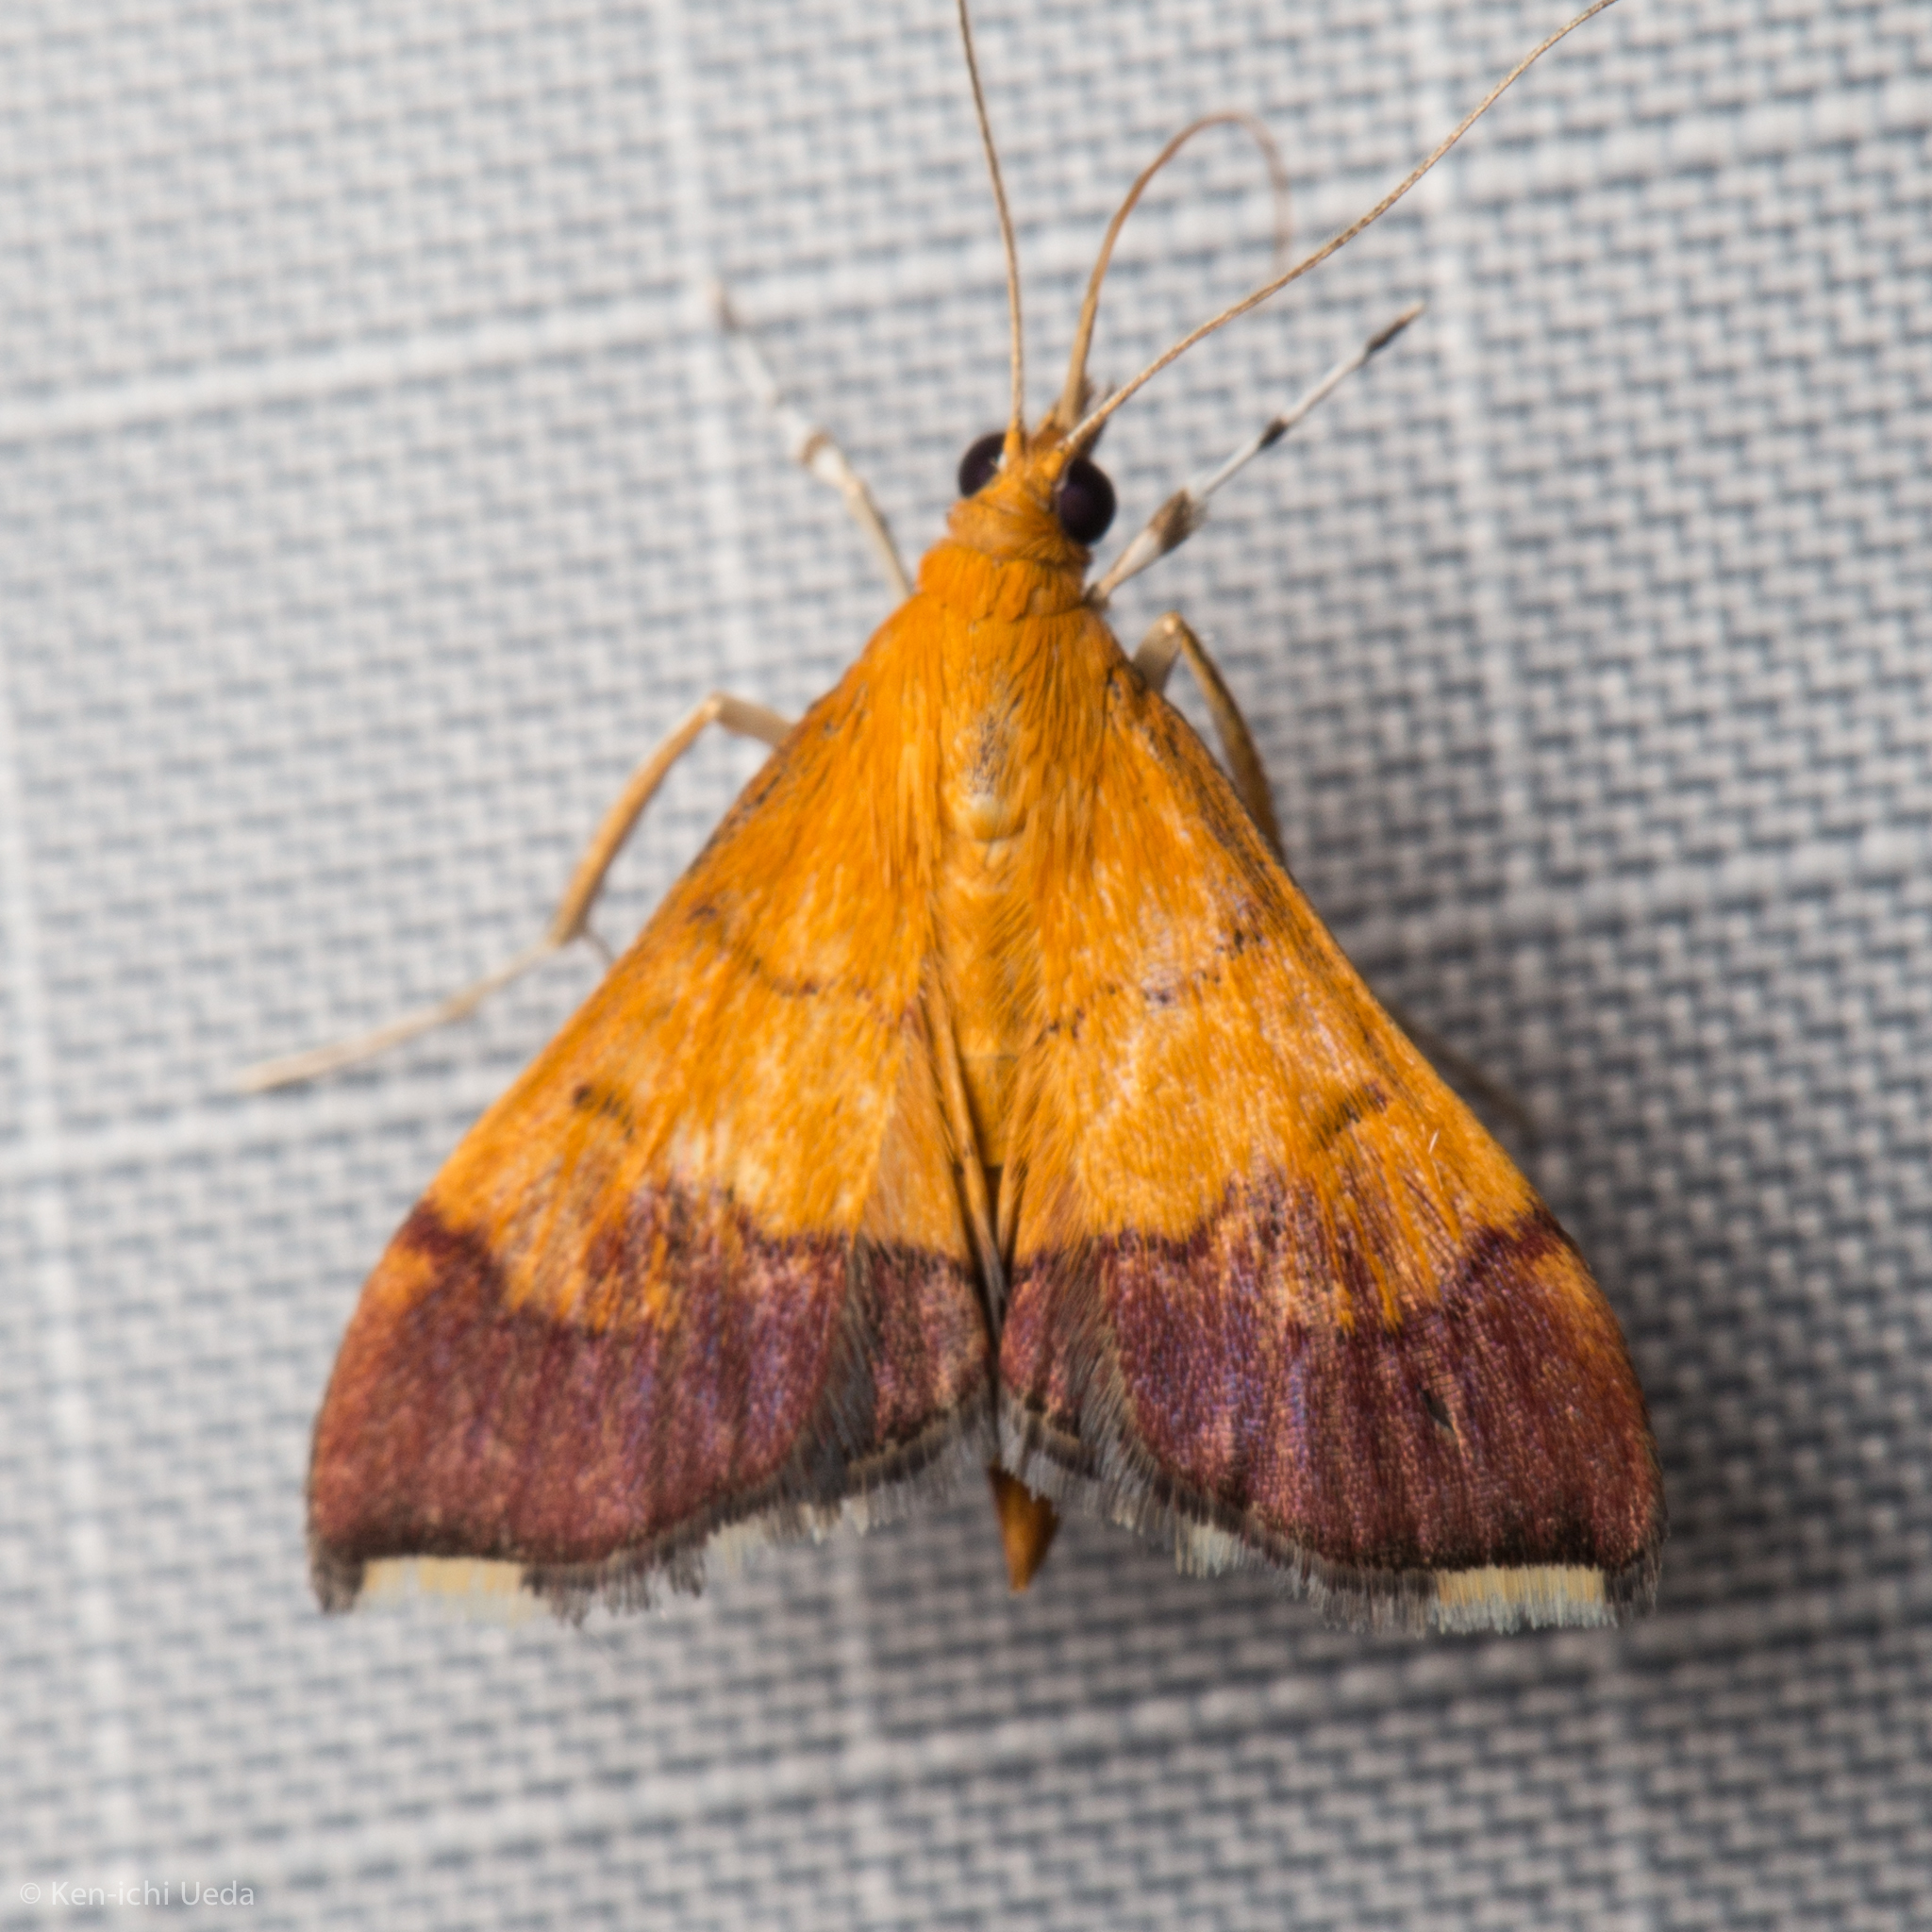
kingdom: Animalia
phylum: Arthropoda
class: Insecta
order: Lepidoptera
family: Crambidae
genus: Pyrausta
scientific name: Pyrausta bicoloralis
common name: Bicolored pyrausta moth
